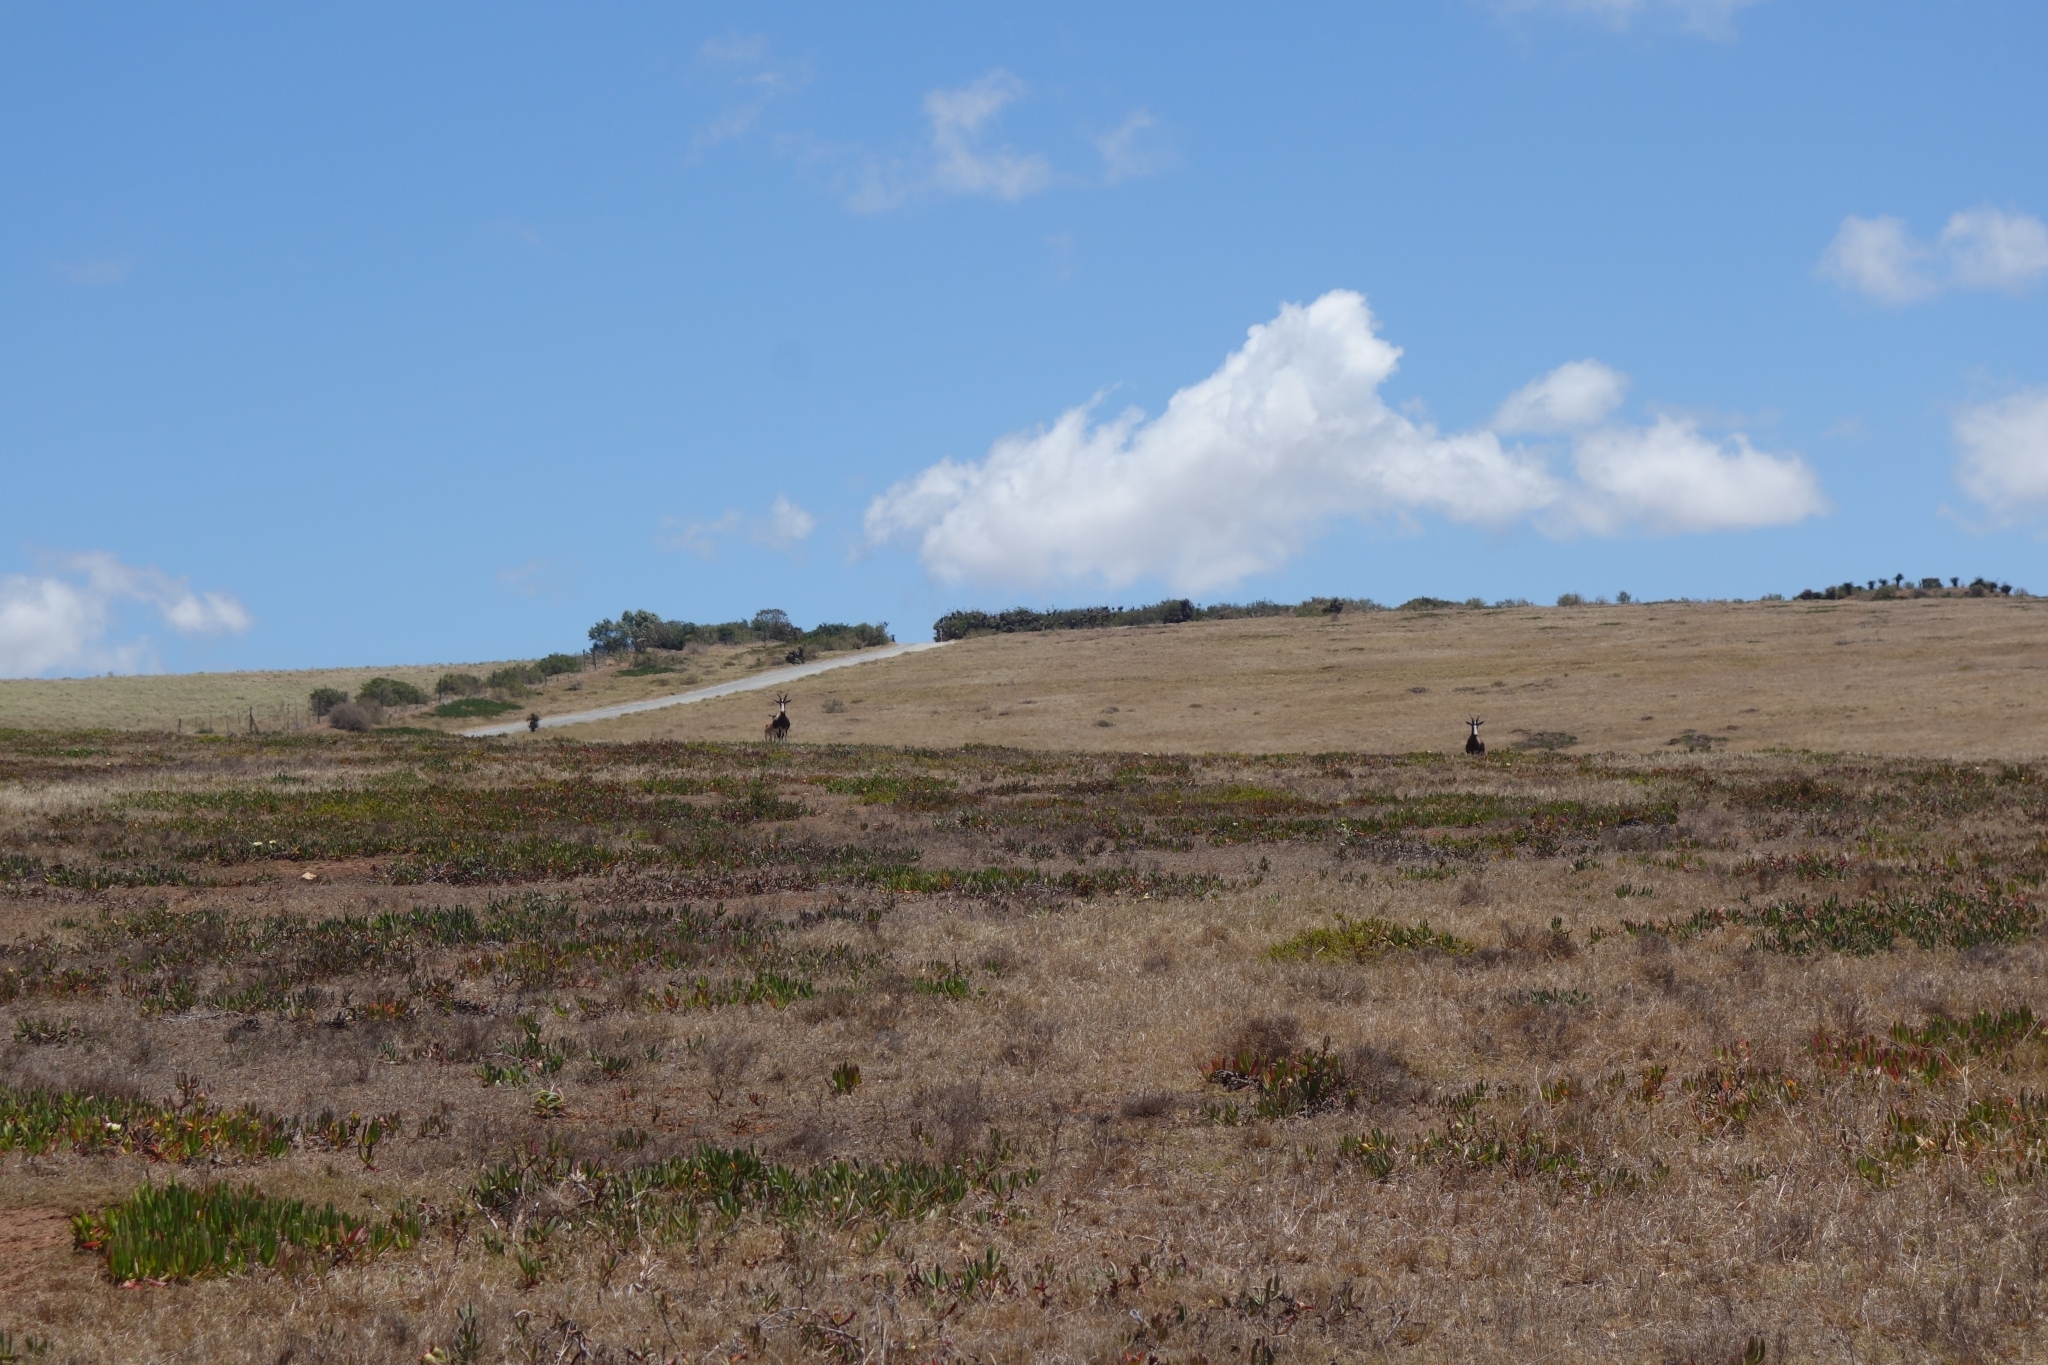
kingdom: Animalia
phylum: Chordata
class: Mammalia
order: Artiodactyla
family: Bovidae
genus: Damaliscus
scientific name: Damaliscus pygargus
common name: Bontebok
